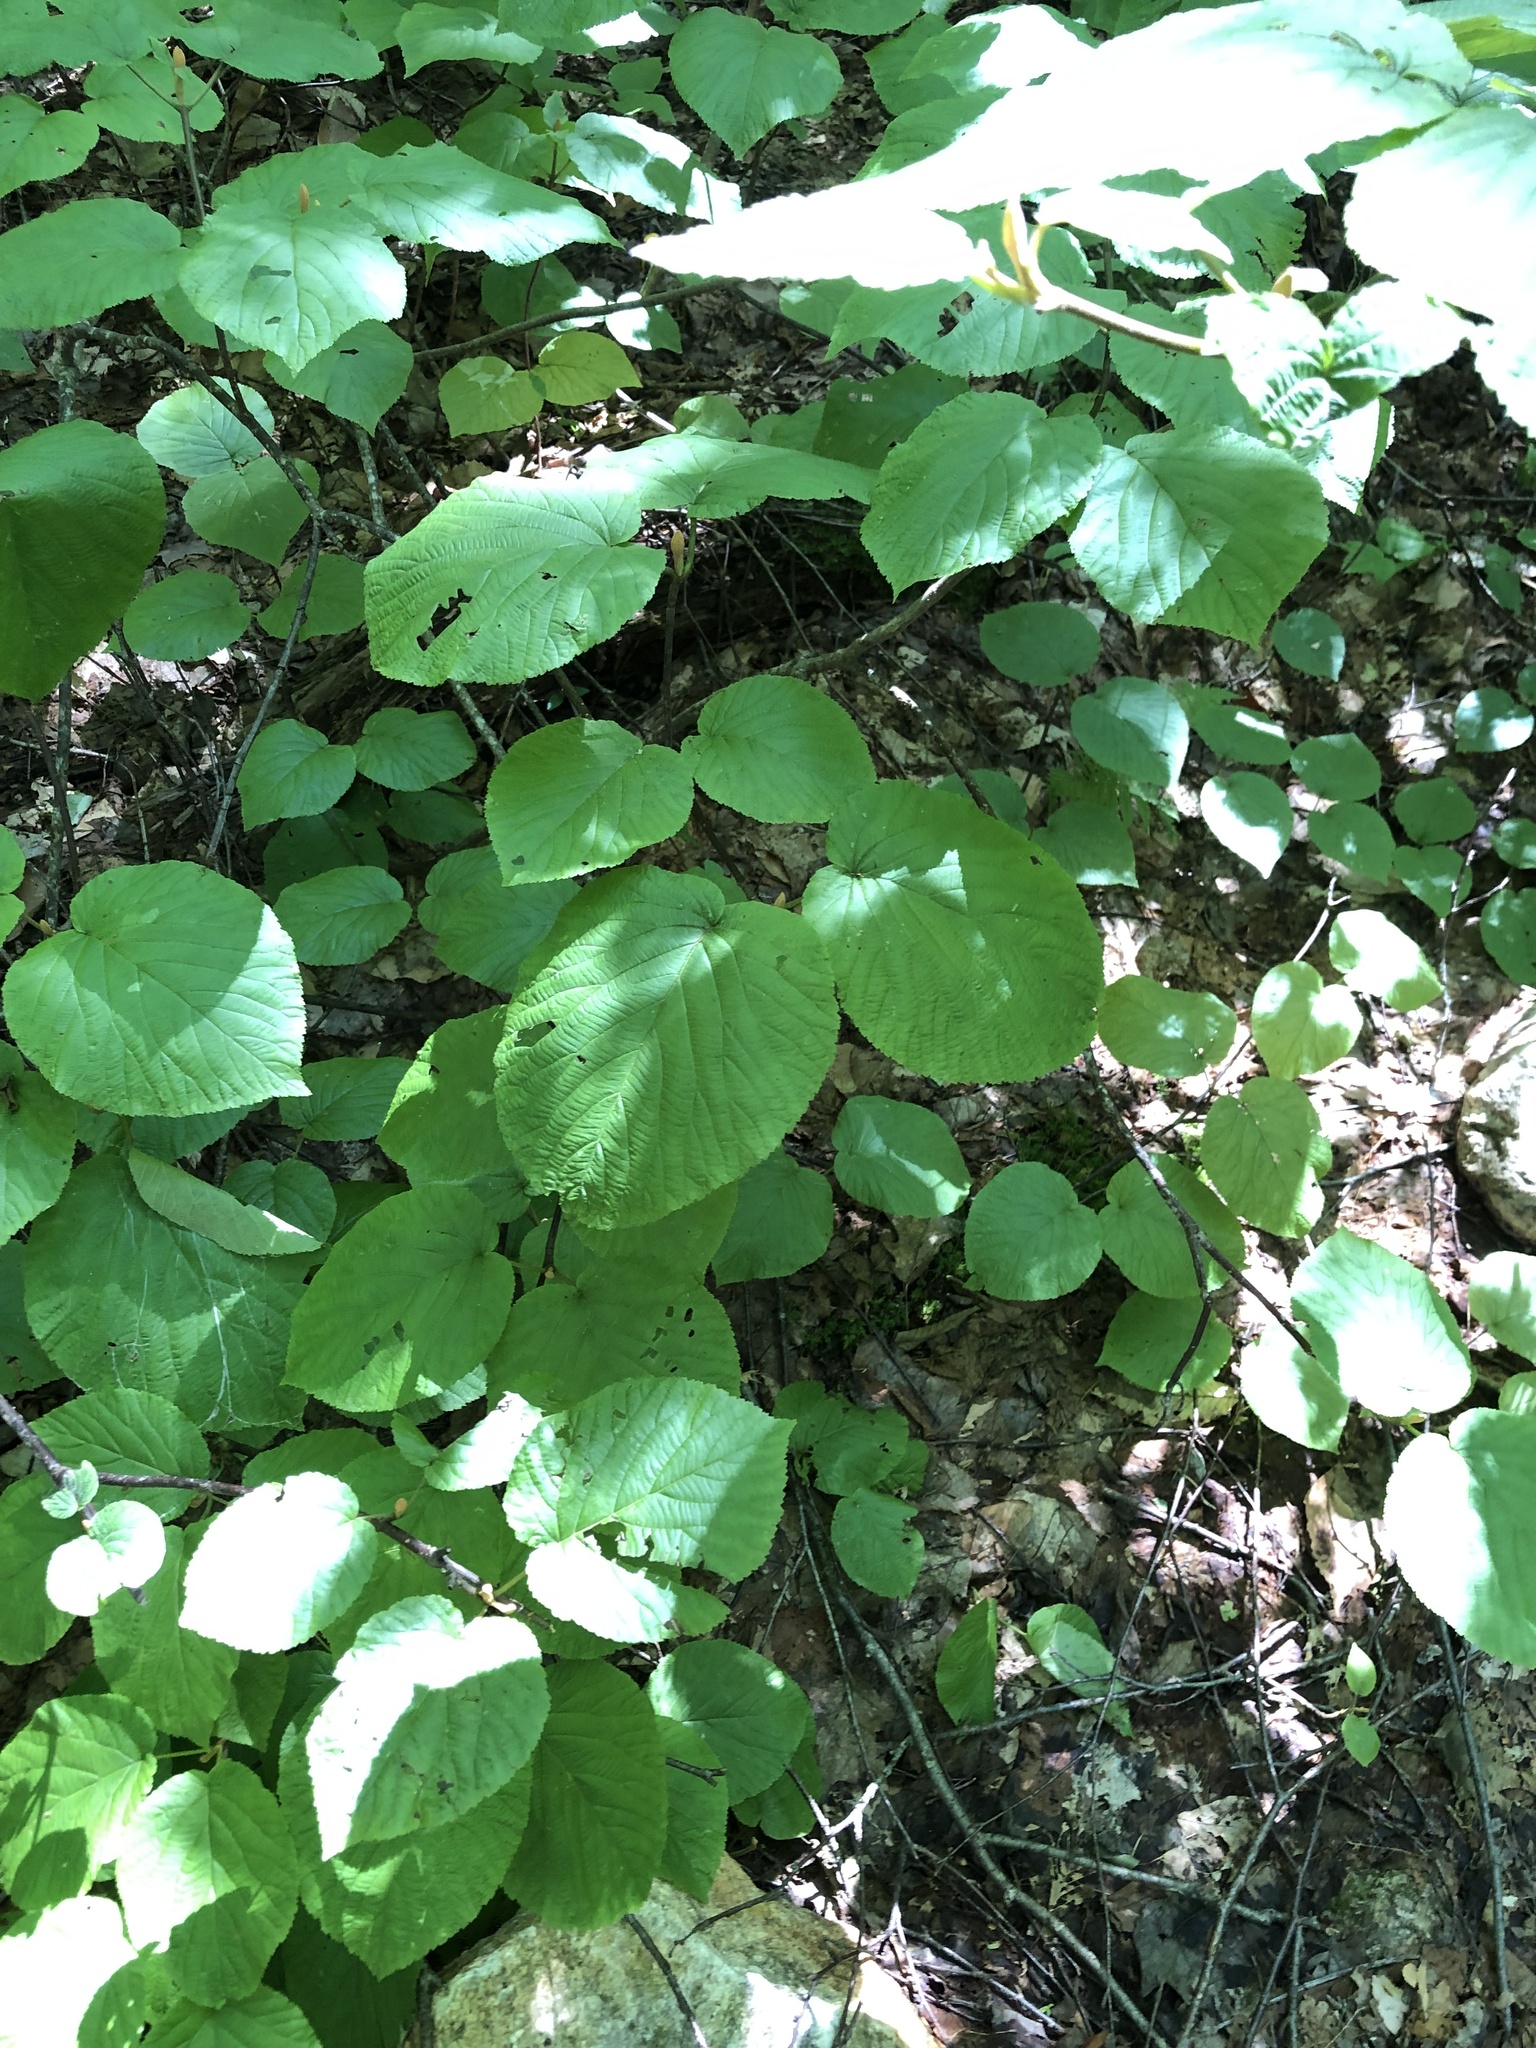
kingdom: Plantae
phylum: Tracheophyta
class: Magnoliopsida
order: Dipsacales
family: Viburnaceae
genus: Viburnum
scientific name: Viburnum lantanoides
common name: Hobblebush
